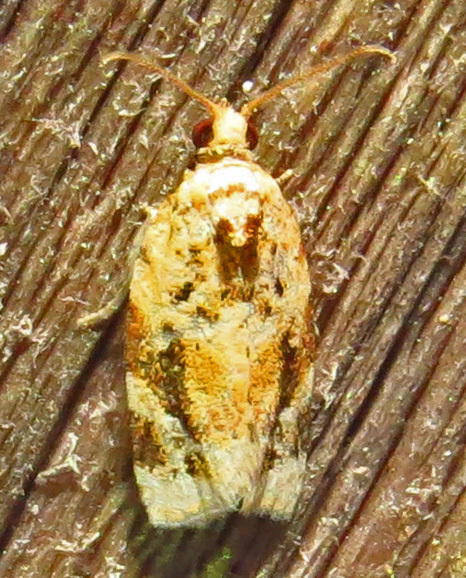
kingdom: Animalia
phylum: Arthropoda
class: Insecta
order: Lepidoptera
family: Tortricidae
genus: Argyrotaenia
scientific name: Argyrotaenia velutinana
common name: Red-banded leafroller moth
